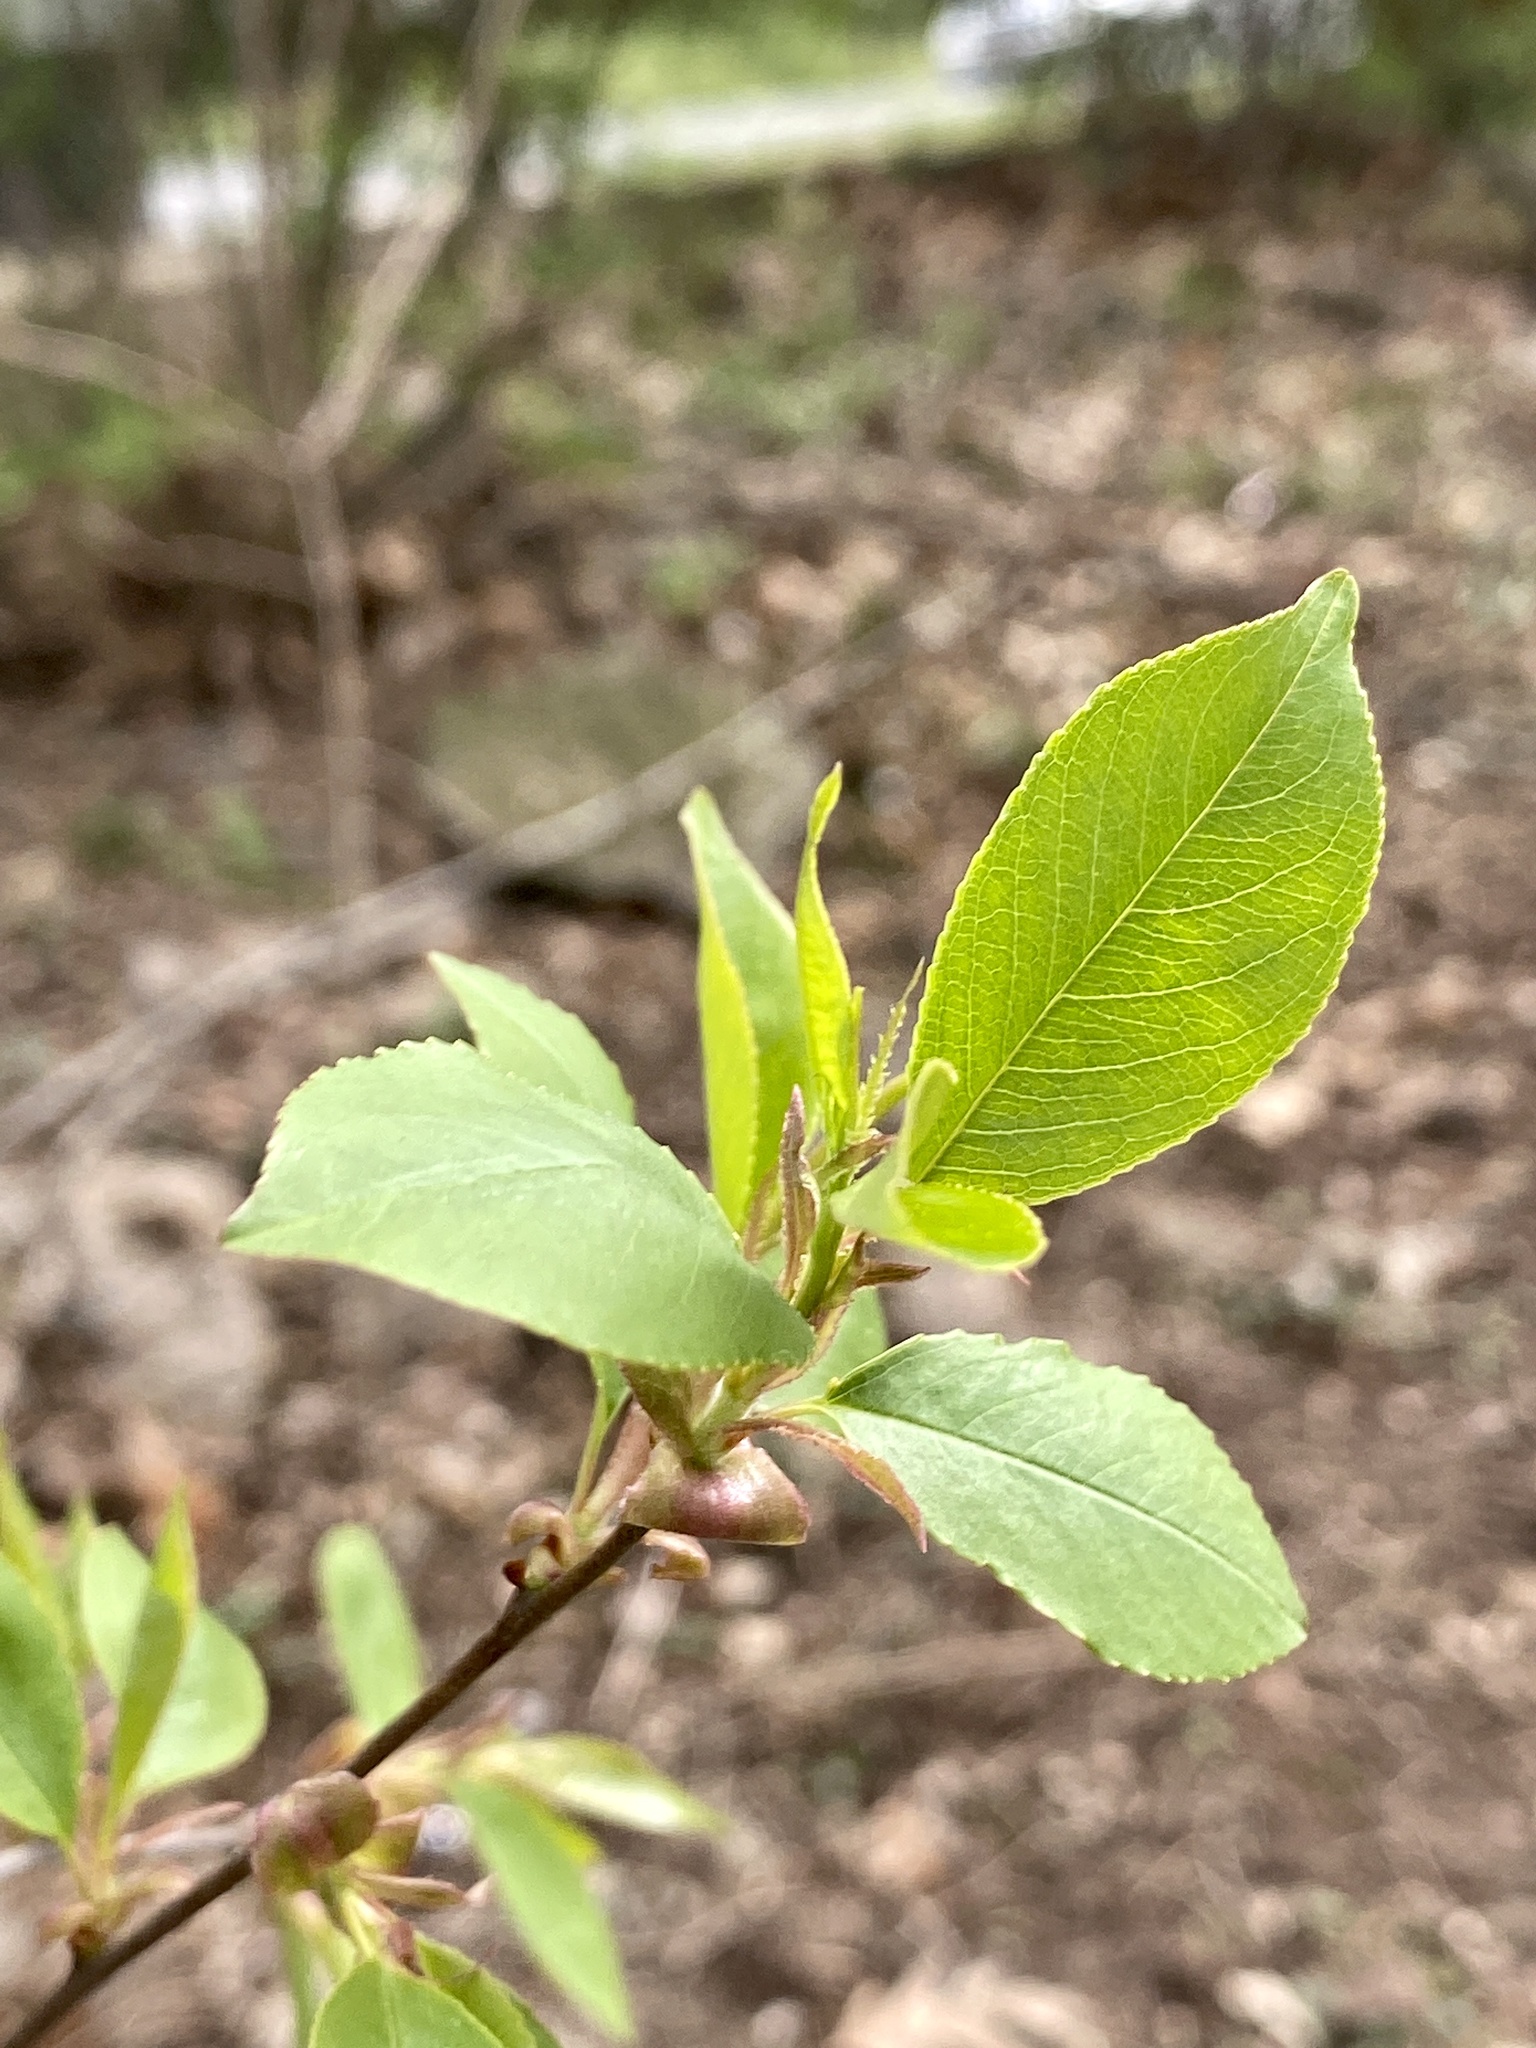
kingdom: Plantae
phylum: Tracheophyta
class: Magnoliopsida
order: Rosales
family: Rosaceae
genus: Prunus
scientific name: Prunus serotina
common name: Black cherry
